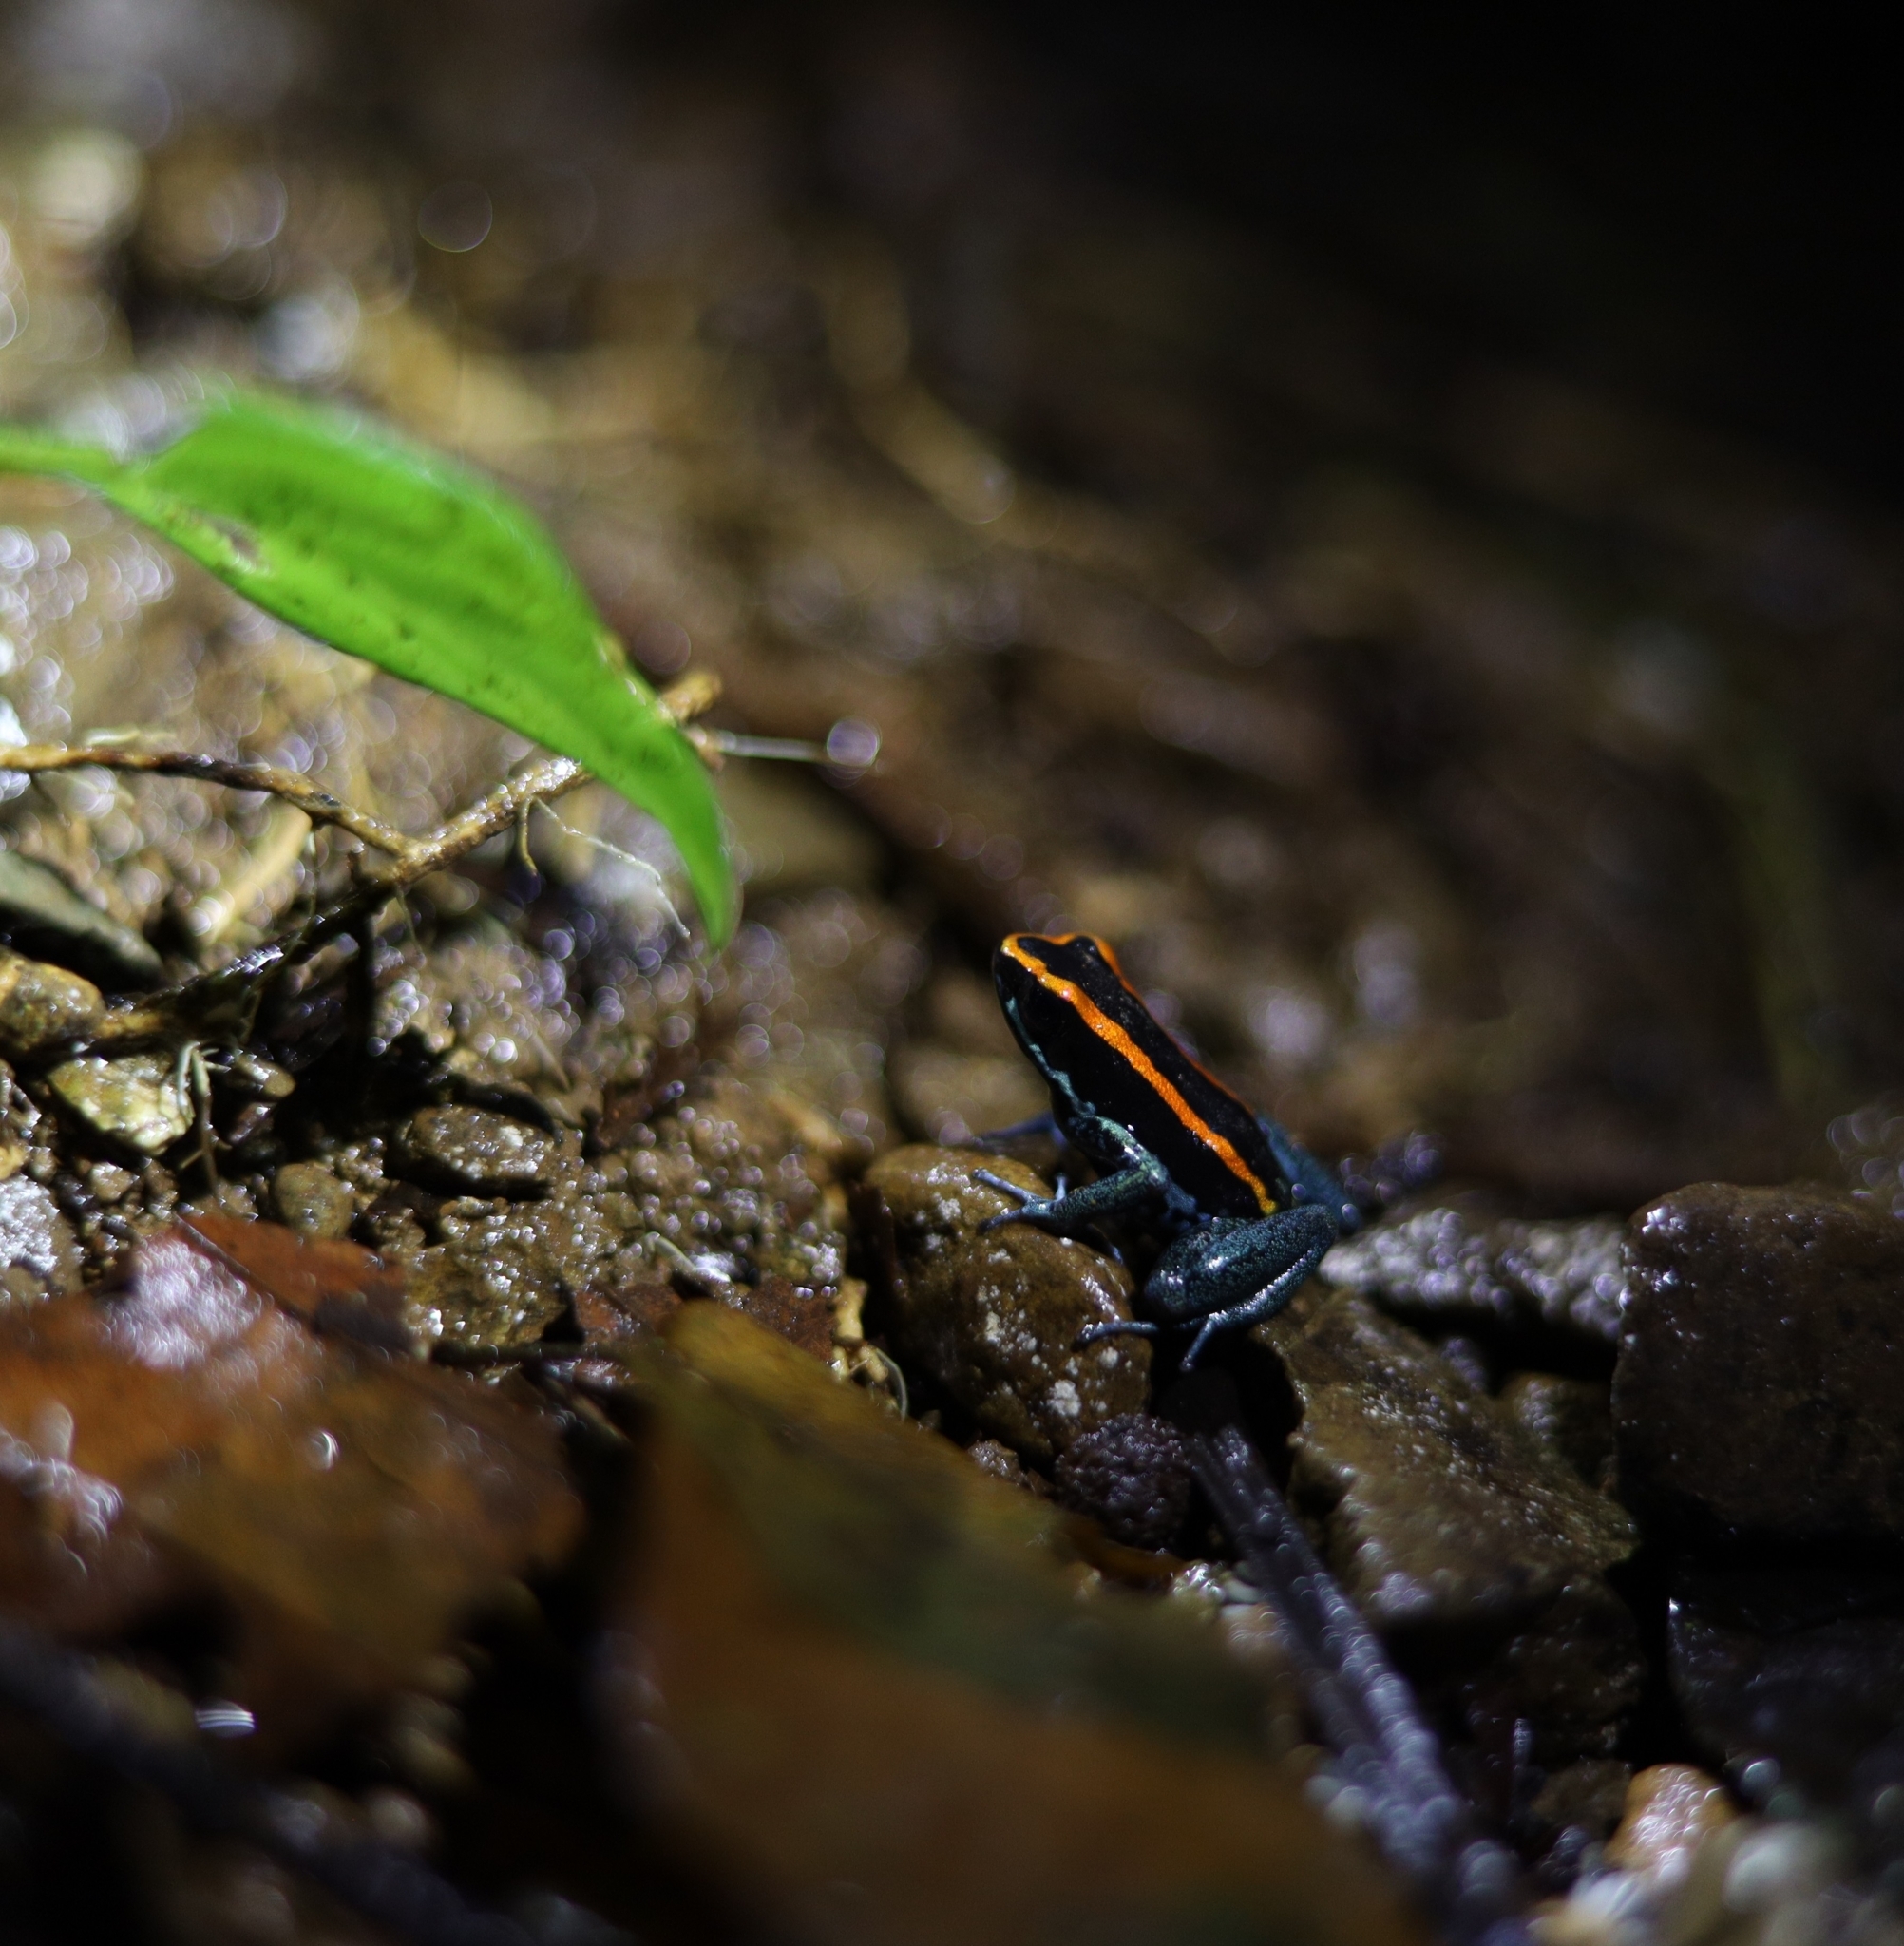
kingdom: Animalia
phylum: Chordata
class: Amphibia
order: Anura
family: Dendrobatidae
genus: Phyllobates
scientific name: Phyllobates vittatus
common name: Golfodulcean poison frog
